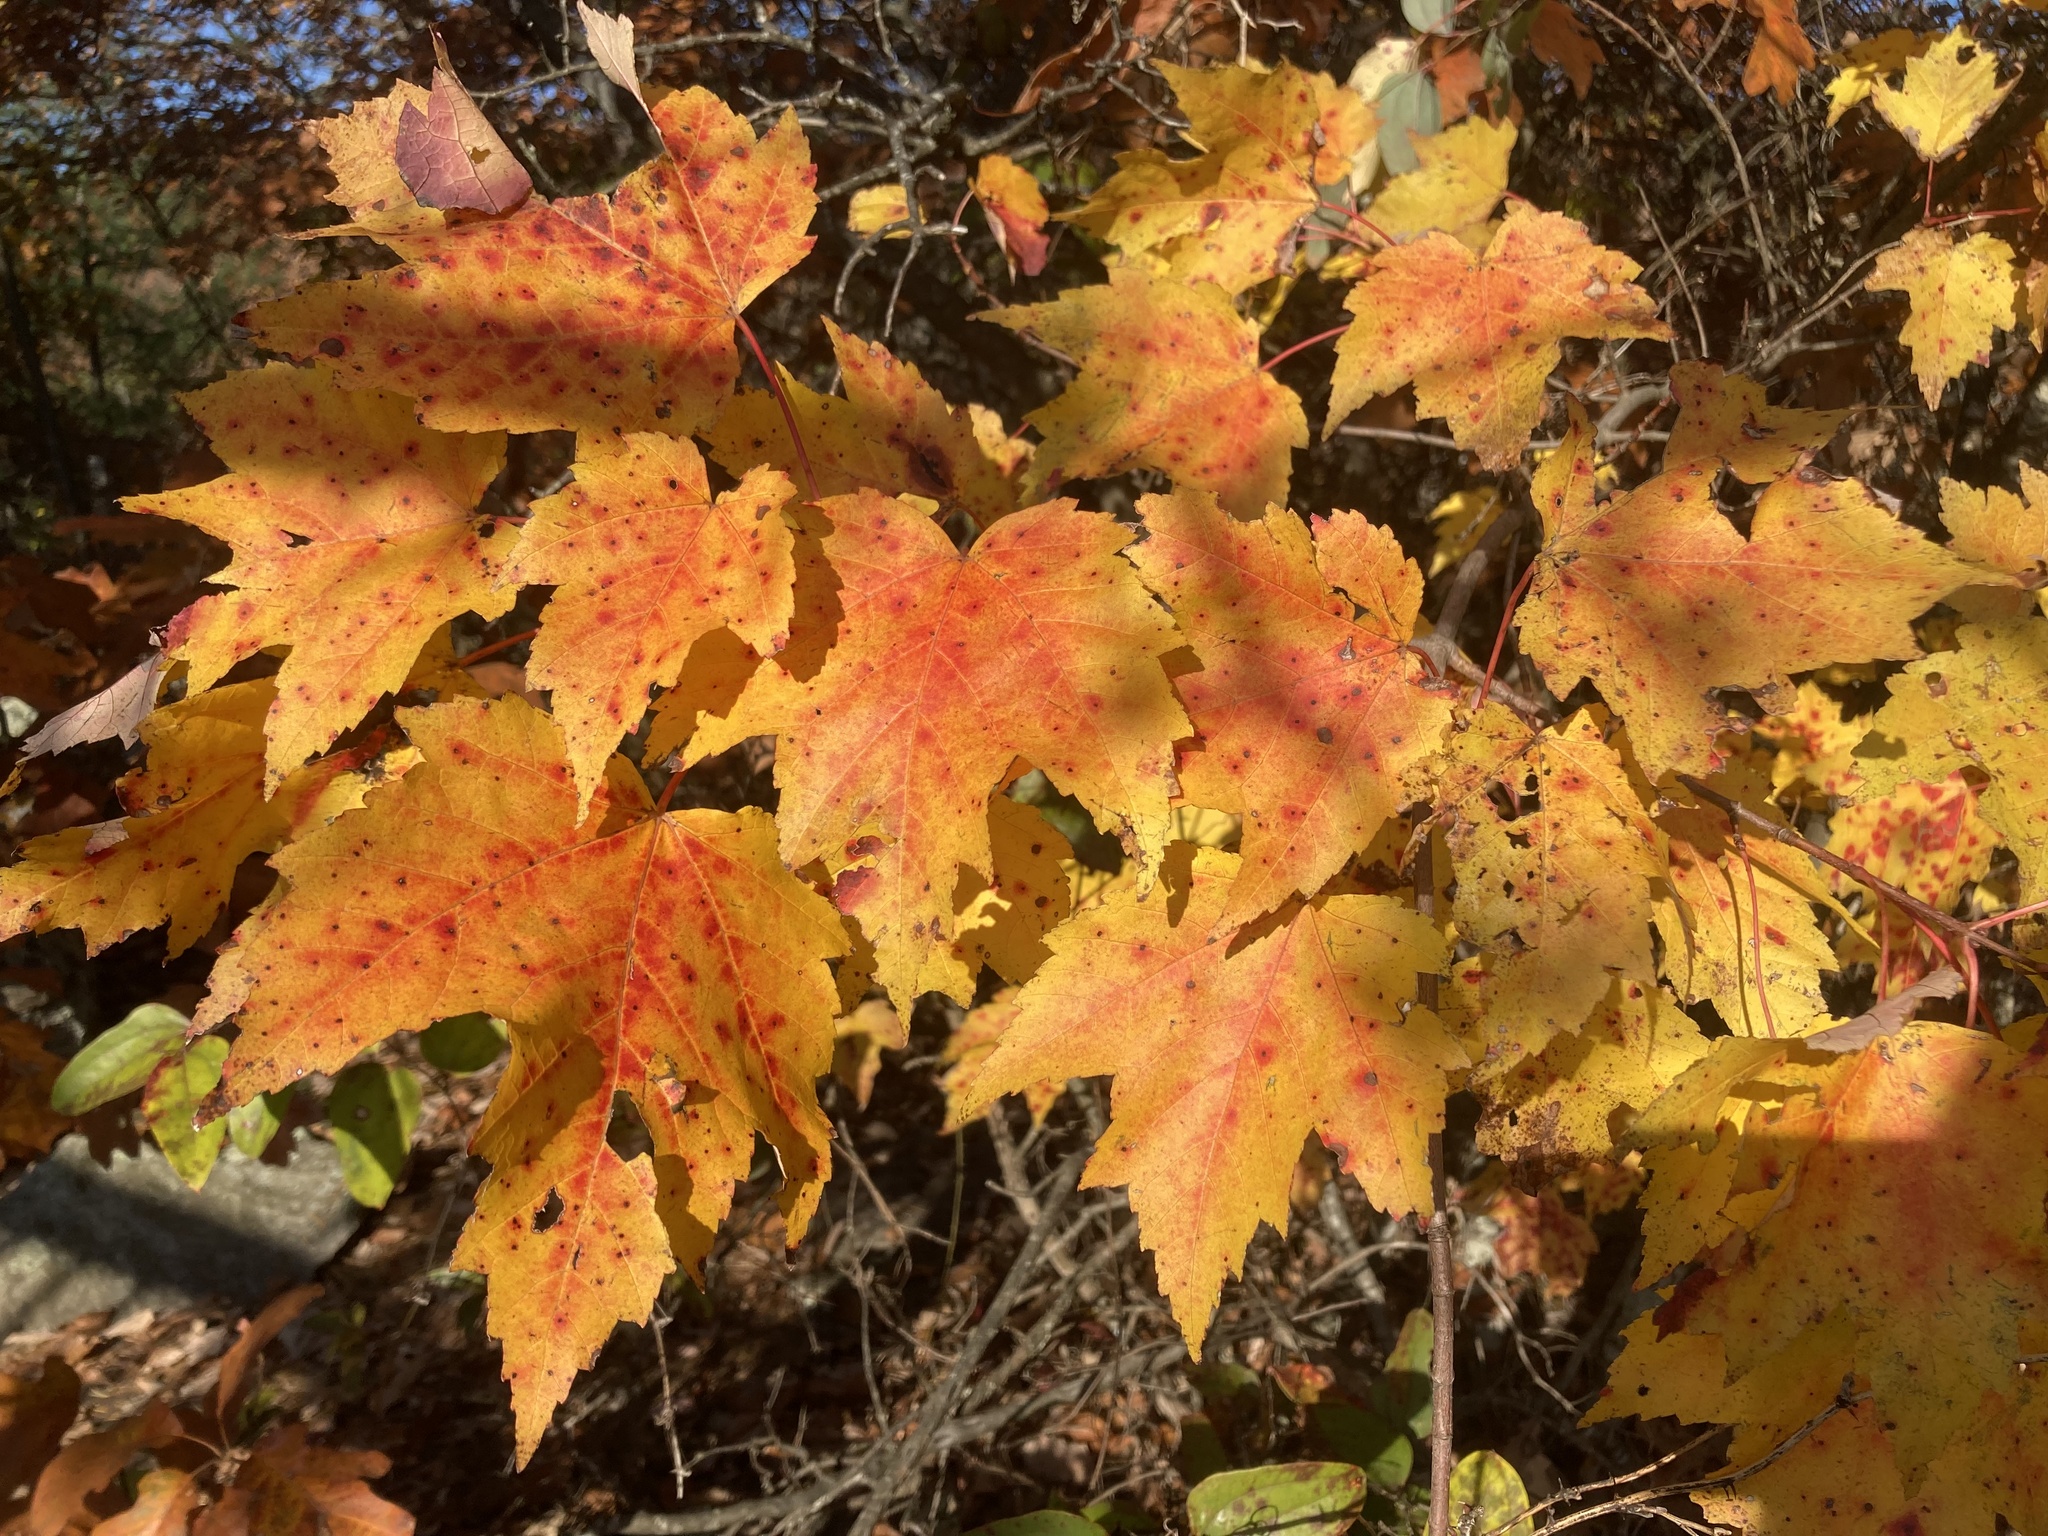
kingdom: Plantae
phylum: Tracheophyta
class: Magnoliopsida
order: Sapindales
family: Sapindaceae
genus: Acer
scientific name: Acer rubrum
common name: Red maple
